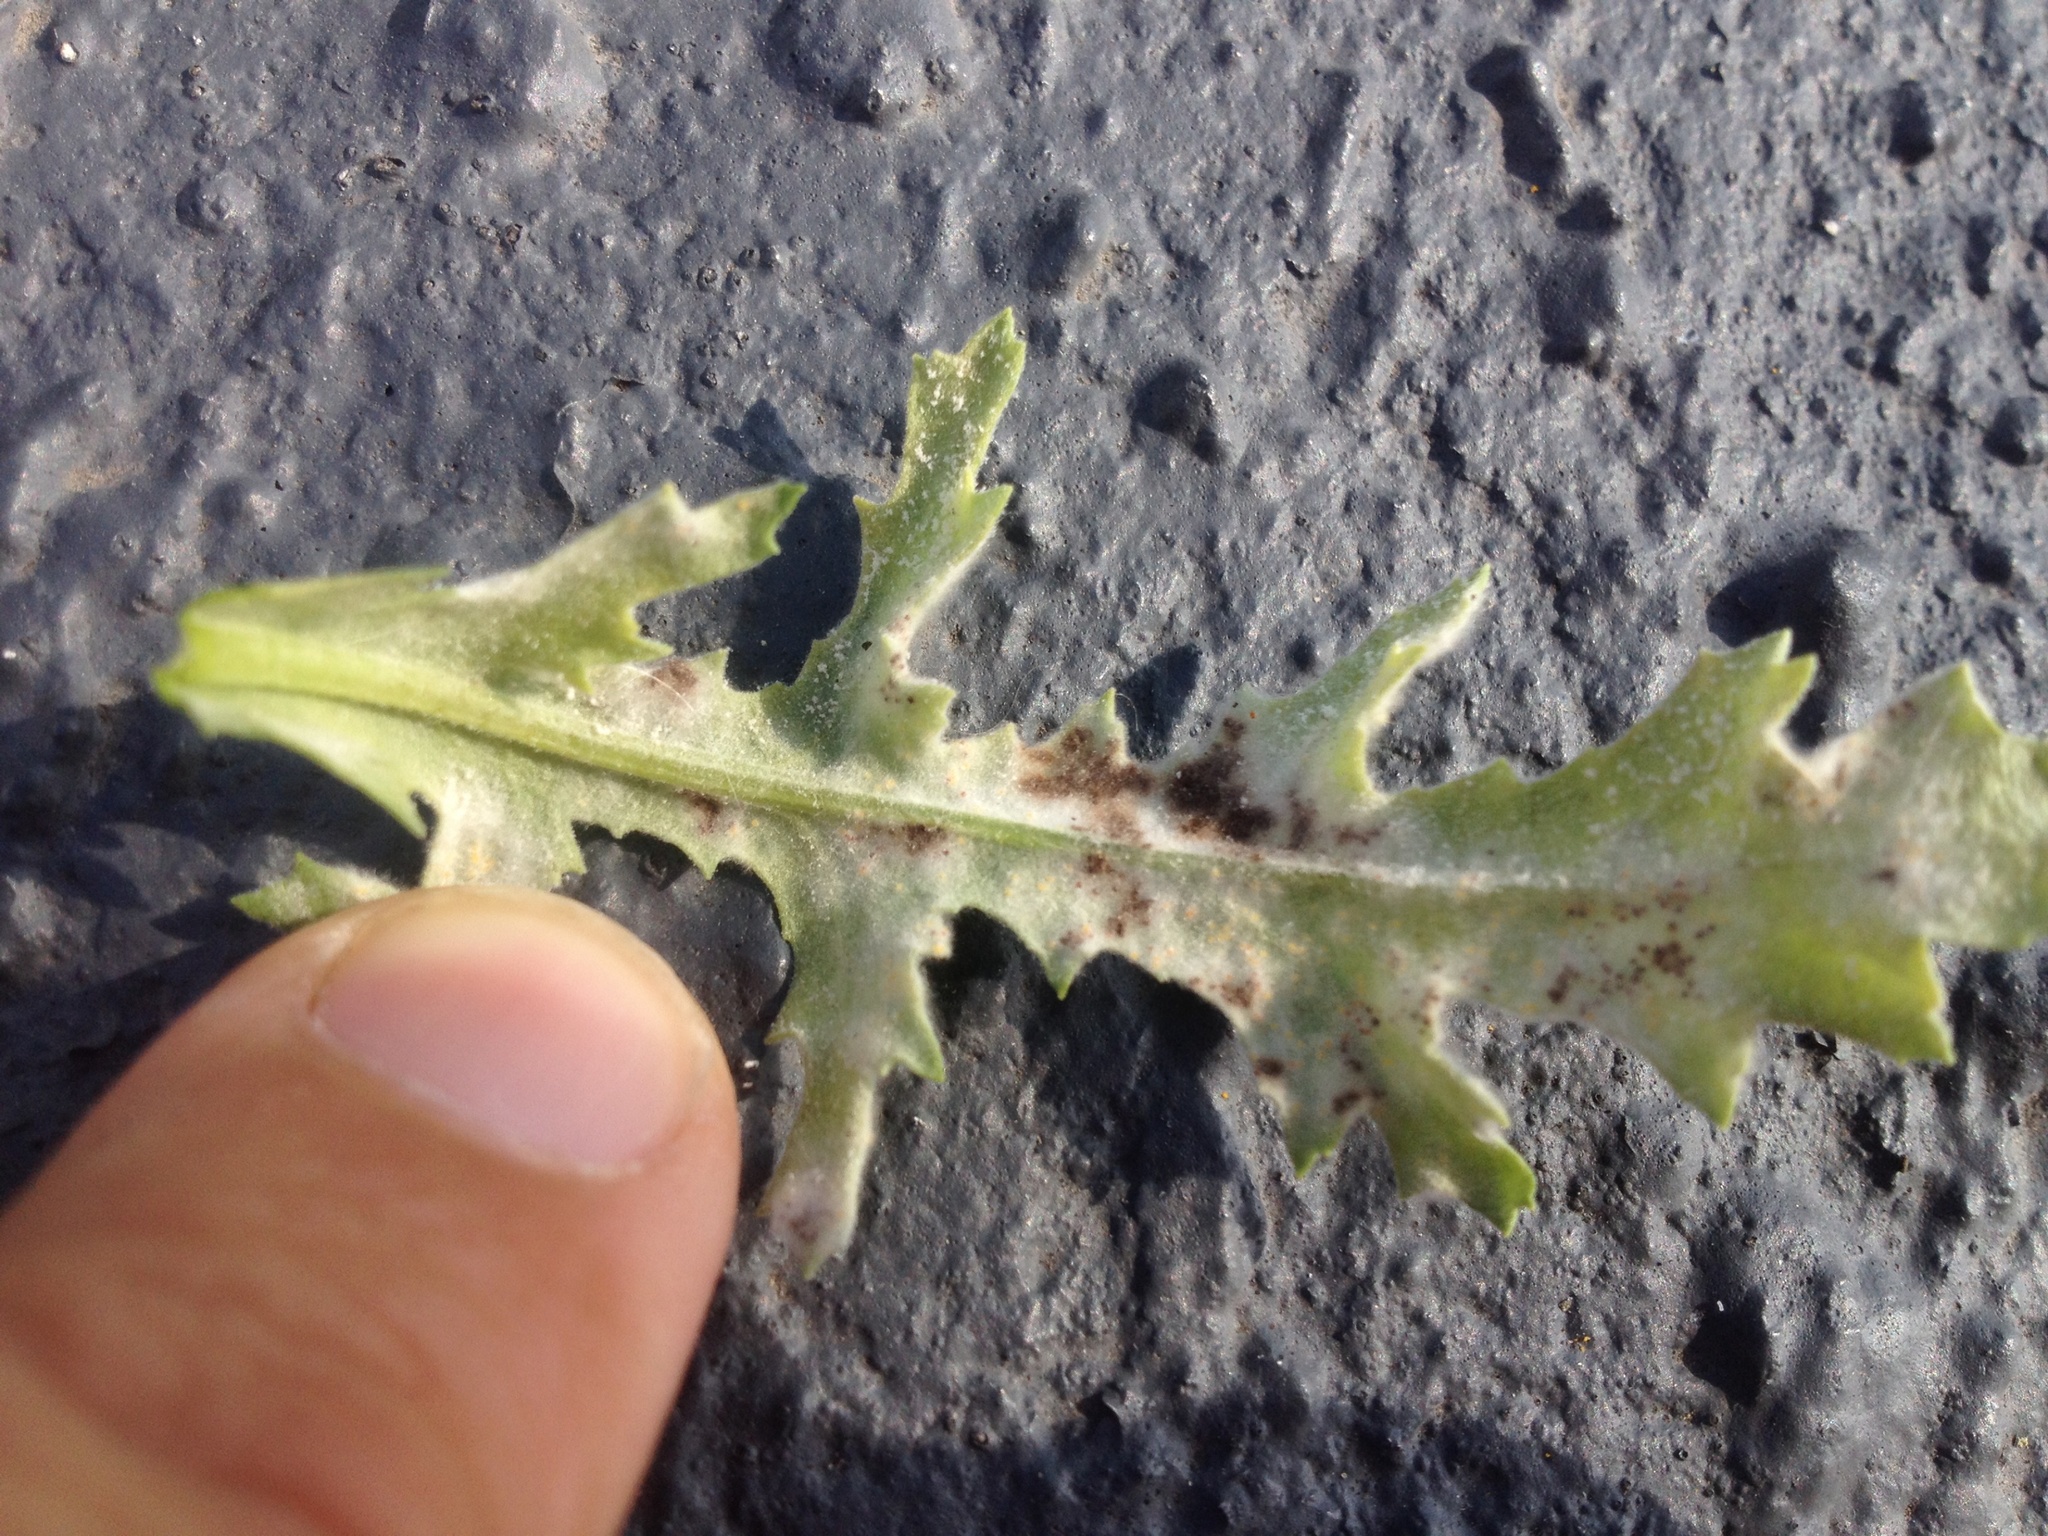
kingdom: Fungi
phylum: Ascomycota
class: Leotiomycetes
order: Helotiales
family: Erysiphaceae
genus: Neoerysiphe
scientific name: Neoerysiphe kerribeeensis
